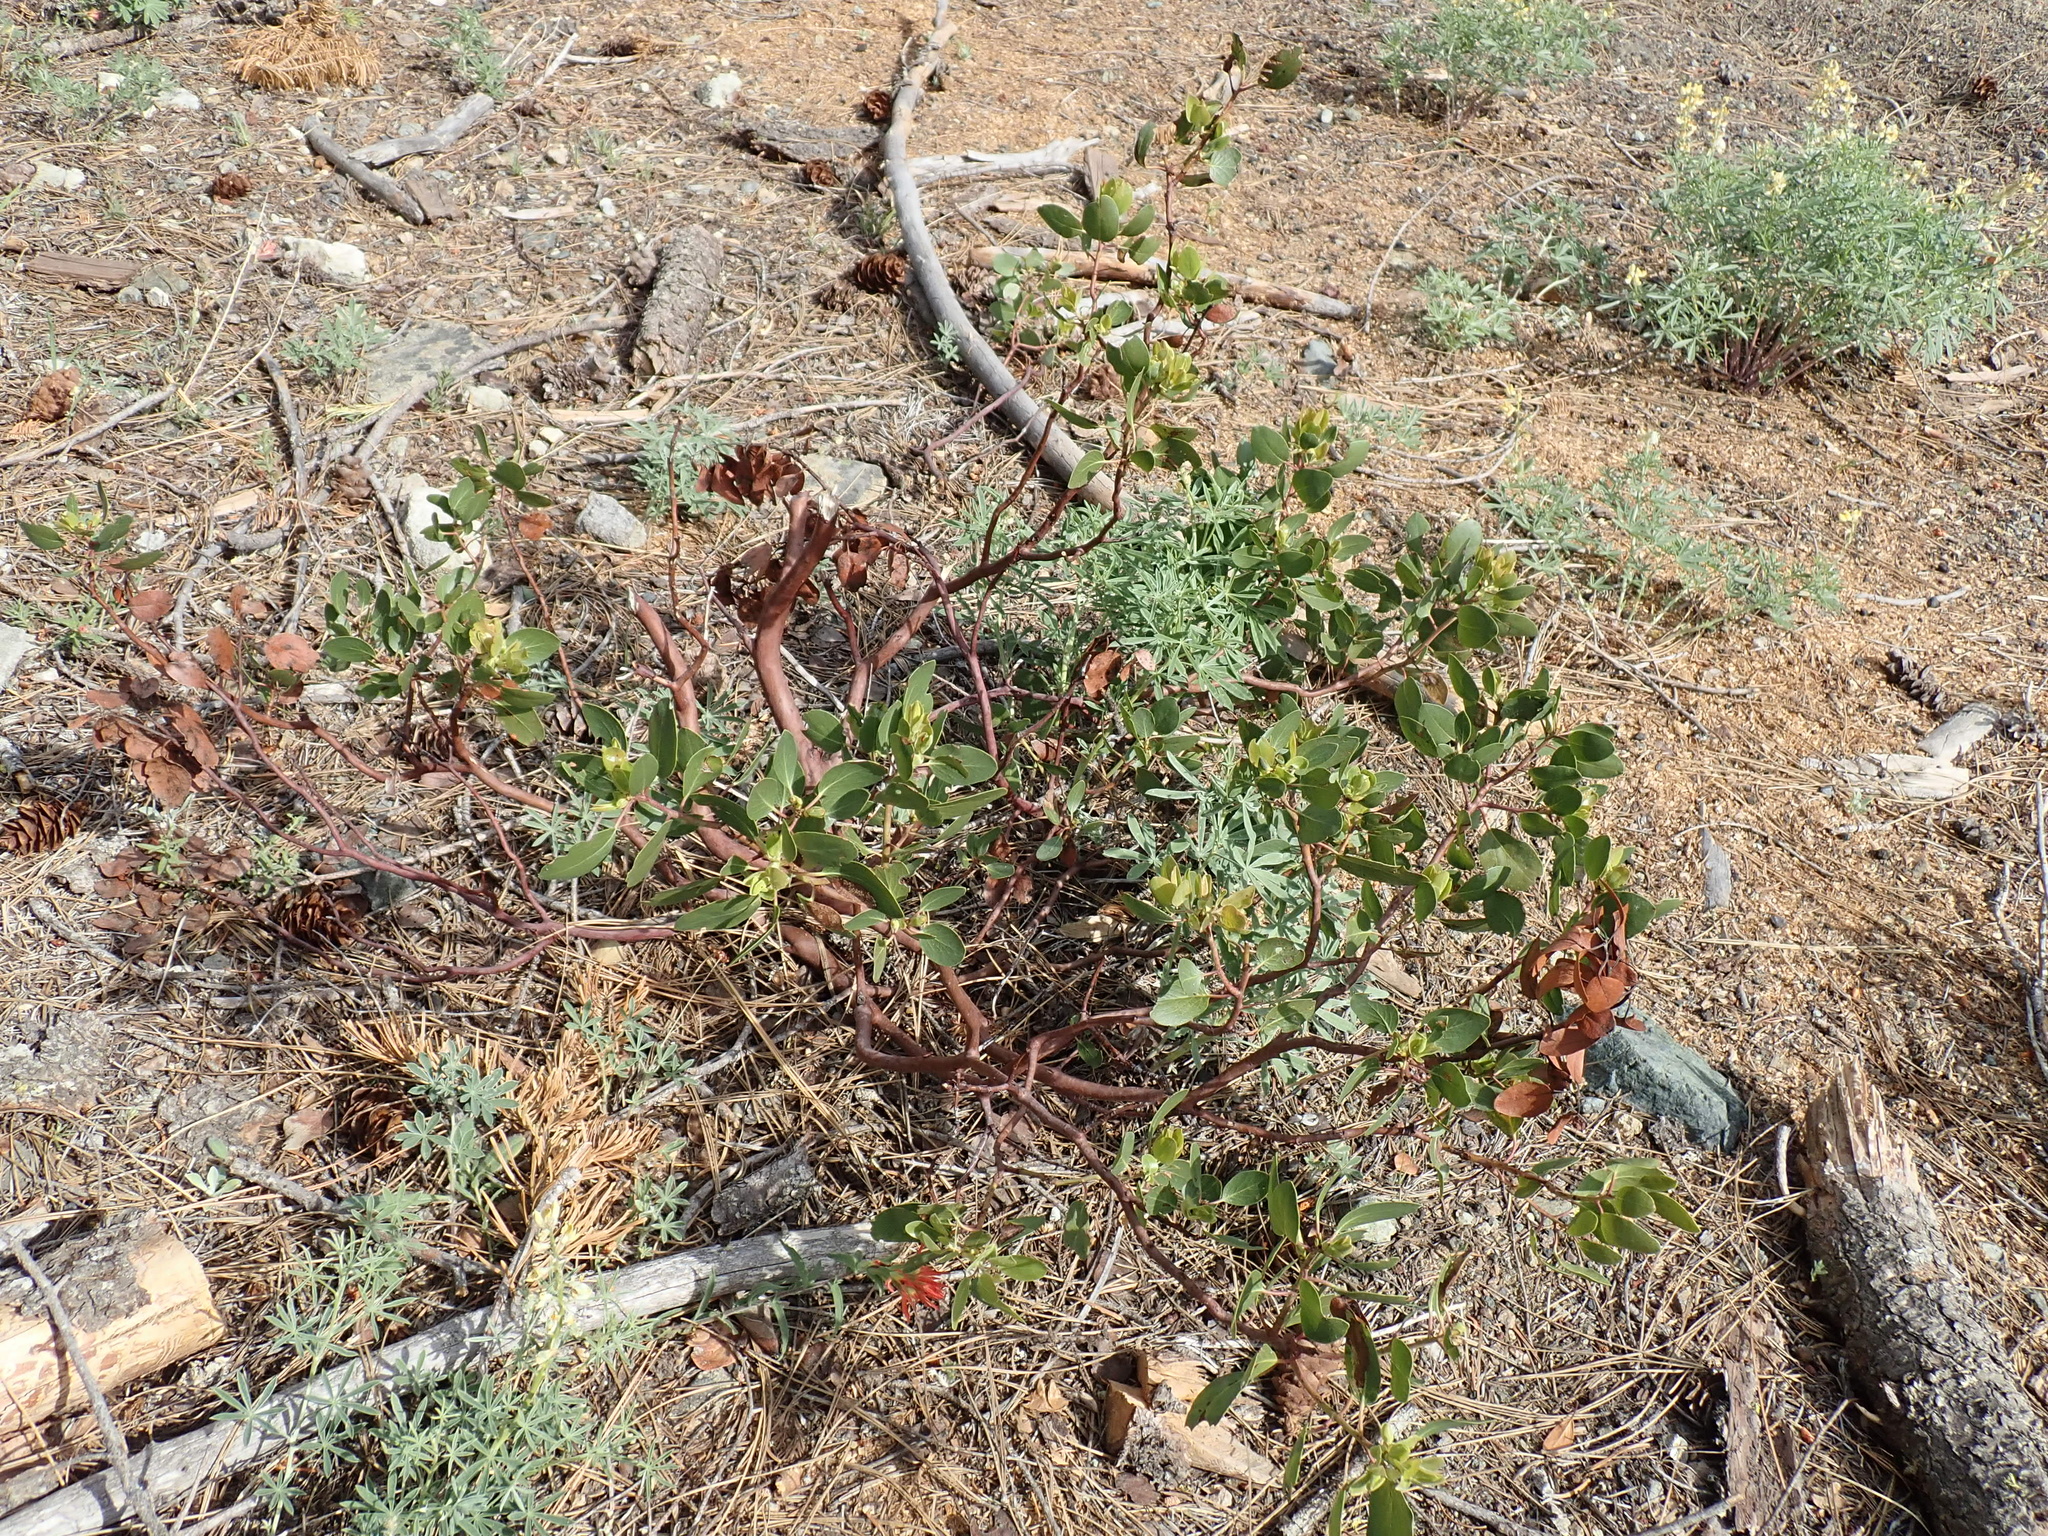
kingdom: Plantae
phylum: Tracheophyta
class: Magnoliopsida
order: Ericales
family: Ericaceae
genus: Arctostaphylos
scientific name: Arctostaphylos patula
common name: Green-leaf manzanita
